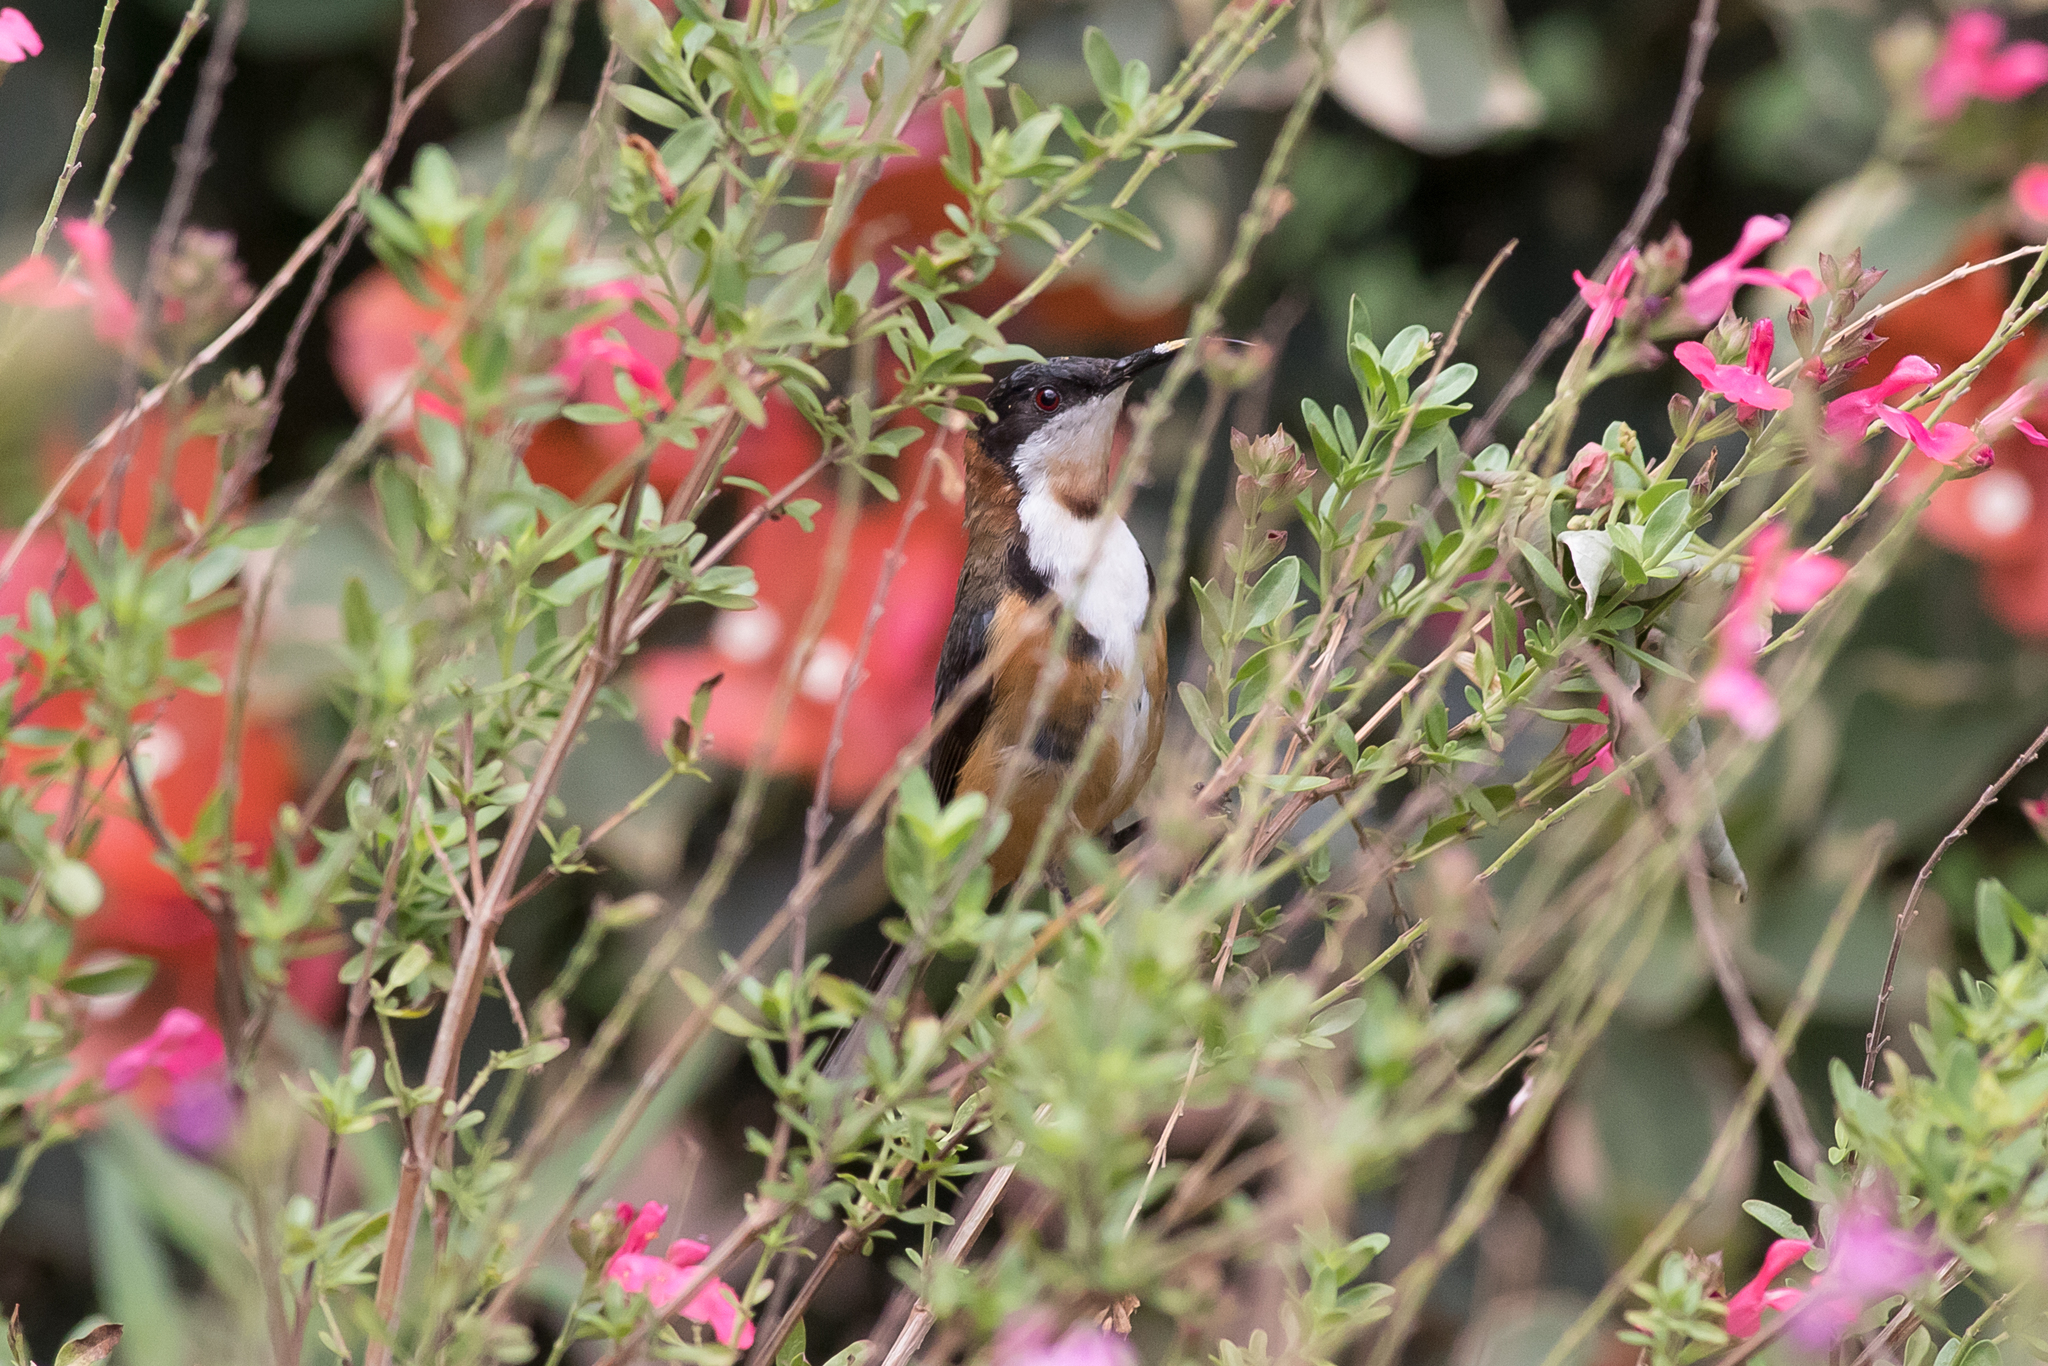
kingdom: Animalia
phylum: Chordata
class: Aves
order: Passeriformes
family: Meliphagidae
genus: Acanthorhynchus
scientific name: Acanthorhynchus tenuirostris
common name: Eastern spinebill
